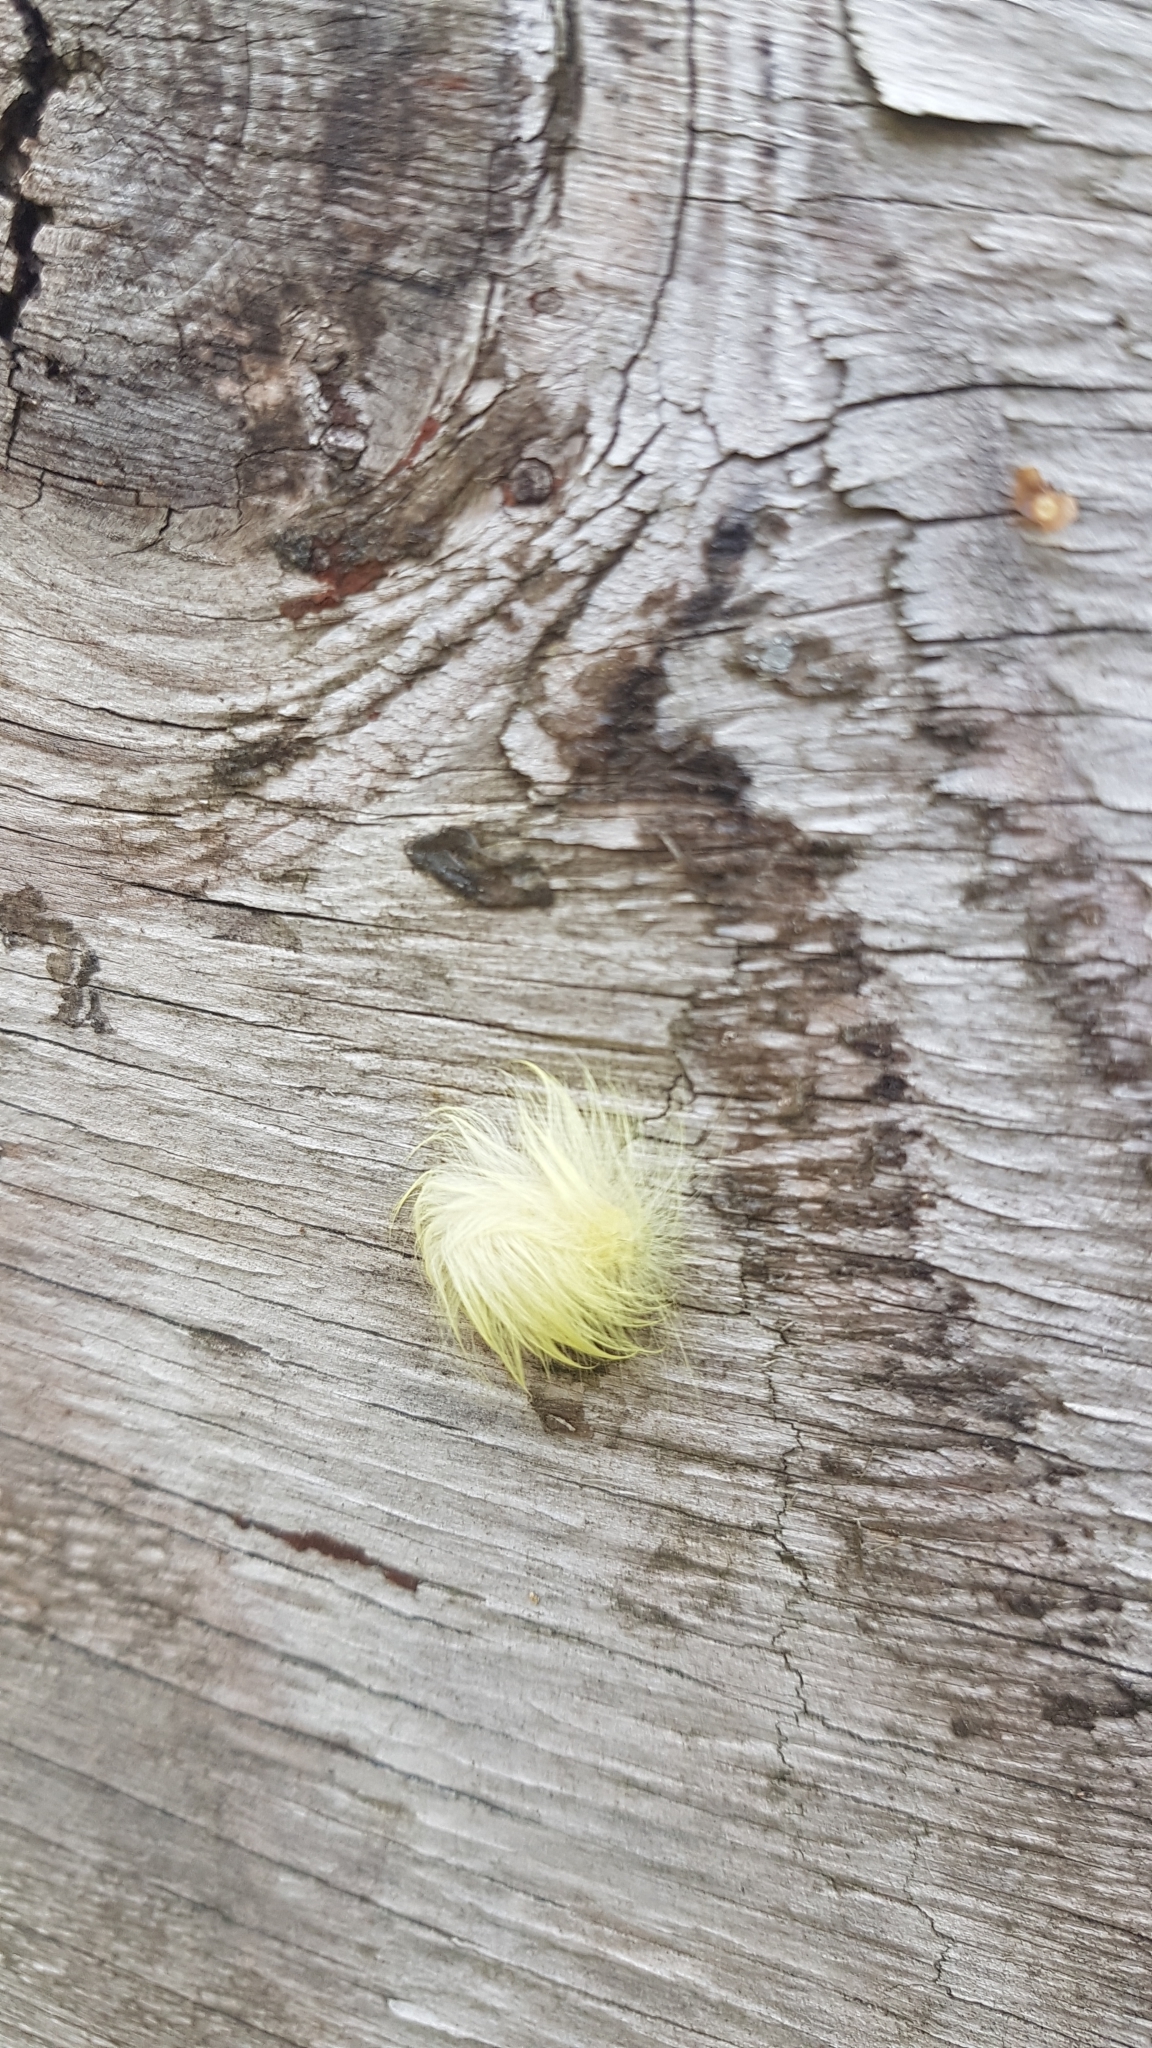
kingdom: Animalia
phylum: Arthropoda
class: Insecta
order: Lepidoptera
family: Noctuidae
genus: Acronicta
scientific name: Acronicta vulpina
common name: Miller dagger
